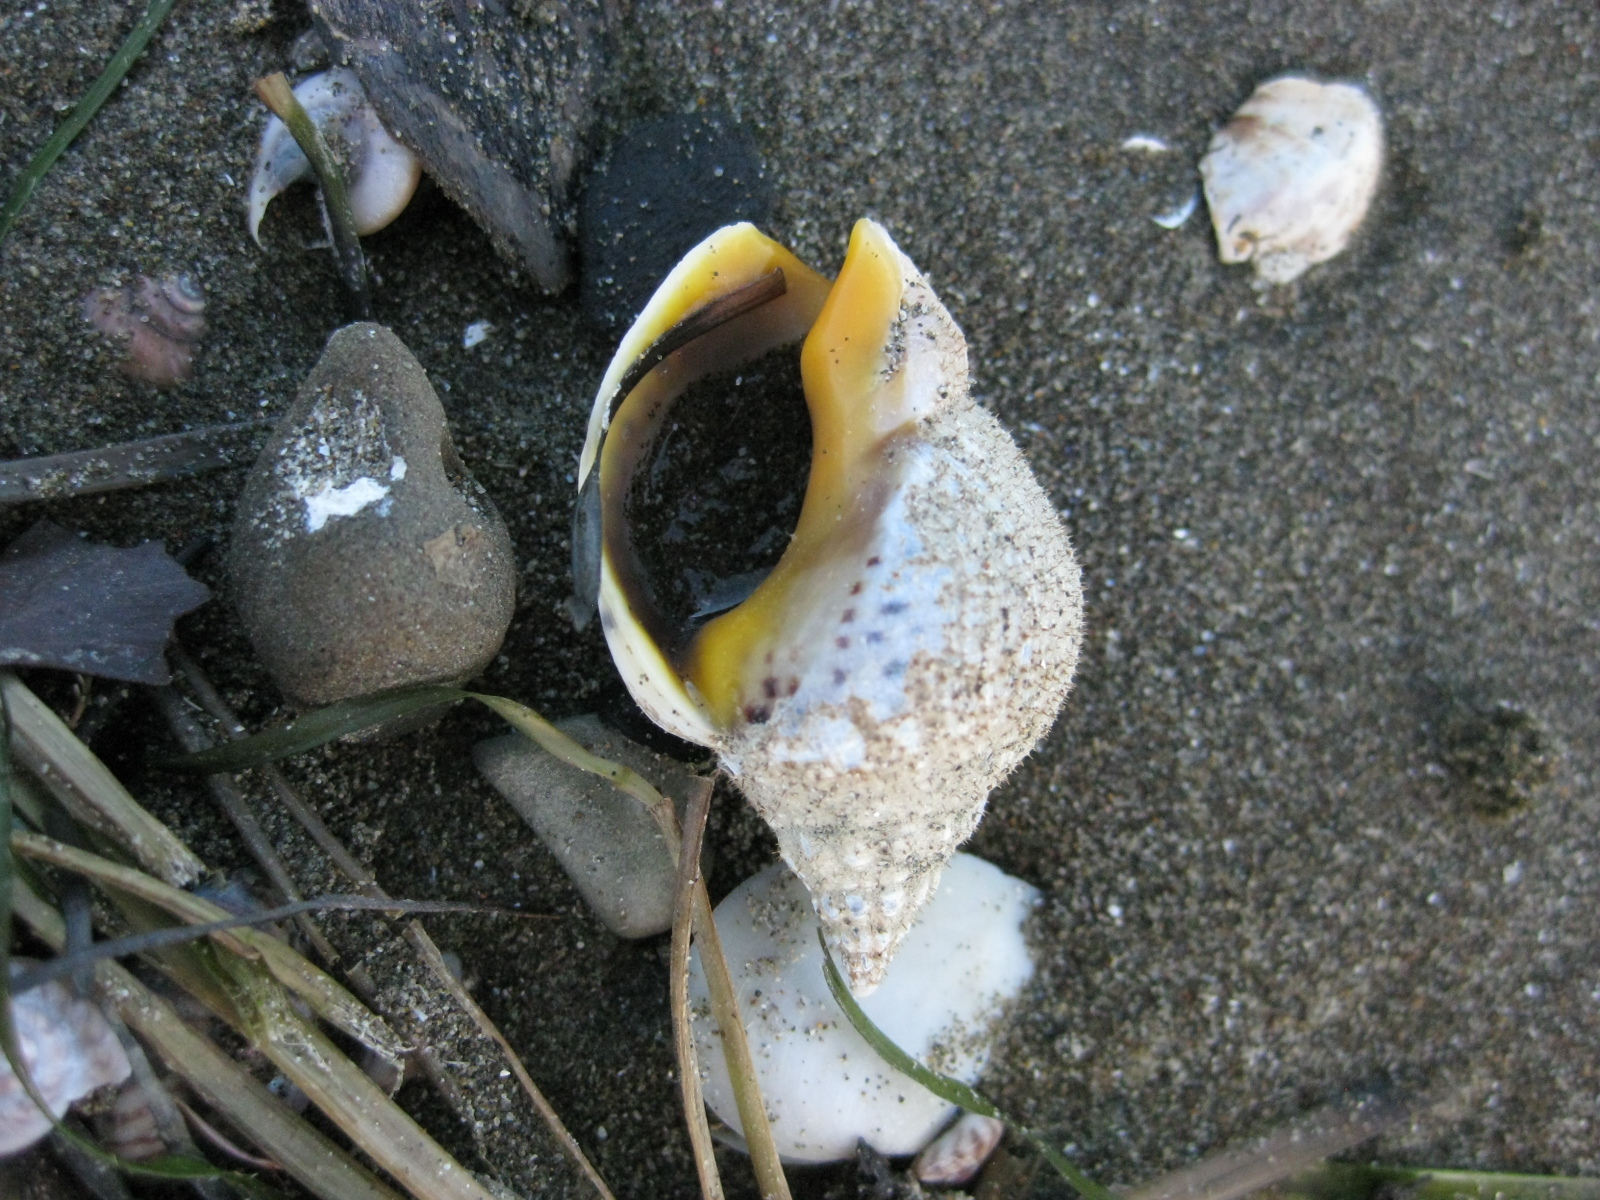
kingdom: Animalia
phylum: Mollusca
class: Gastropoda
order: Neogastropoda
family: Cominellidae
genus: Cominella
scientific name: Cominella adspersa
